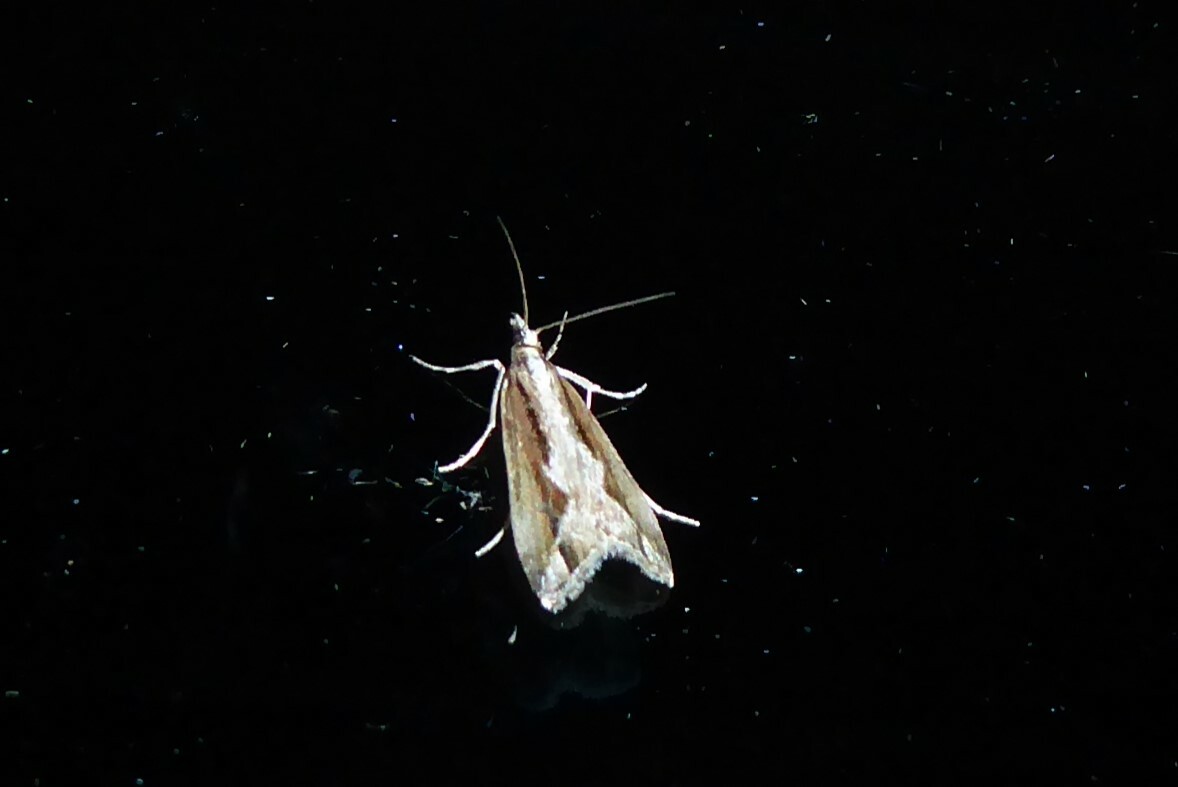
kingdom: Animalia
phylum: Arthropoda
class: Insecta
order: Lepidoptera
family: Crambidae
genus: Eudonia
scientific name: Eudonia steropaea
